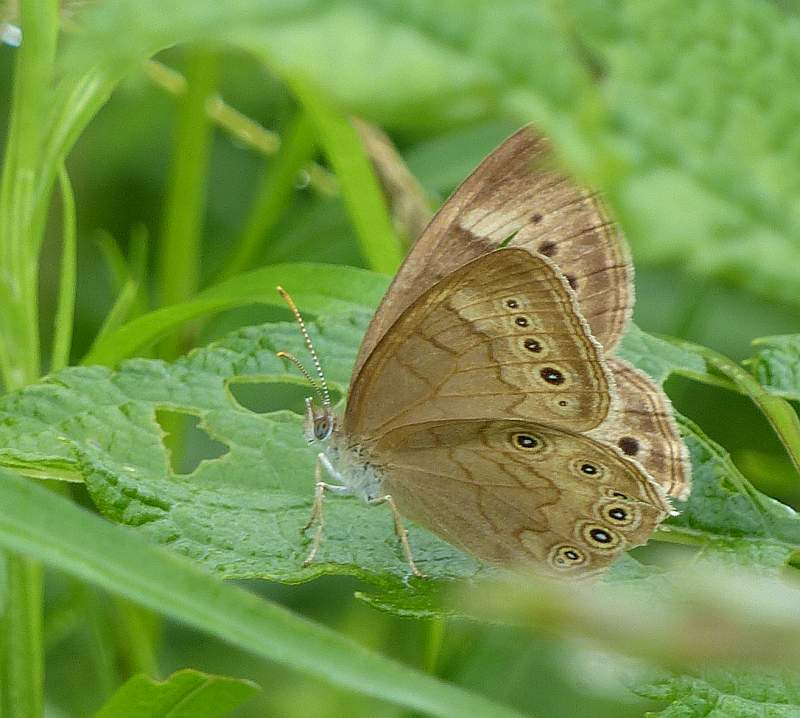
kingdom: Animalia
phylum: Arthropoda
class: Insecta
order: Lepidoptera
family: Nymphalidae
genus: Lethe
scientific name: Lethe eurydice
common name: Eyed brown
